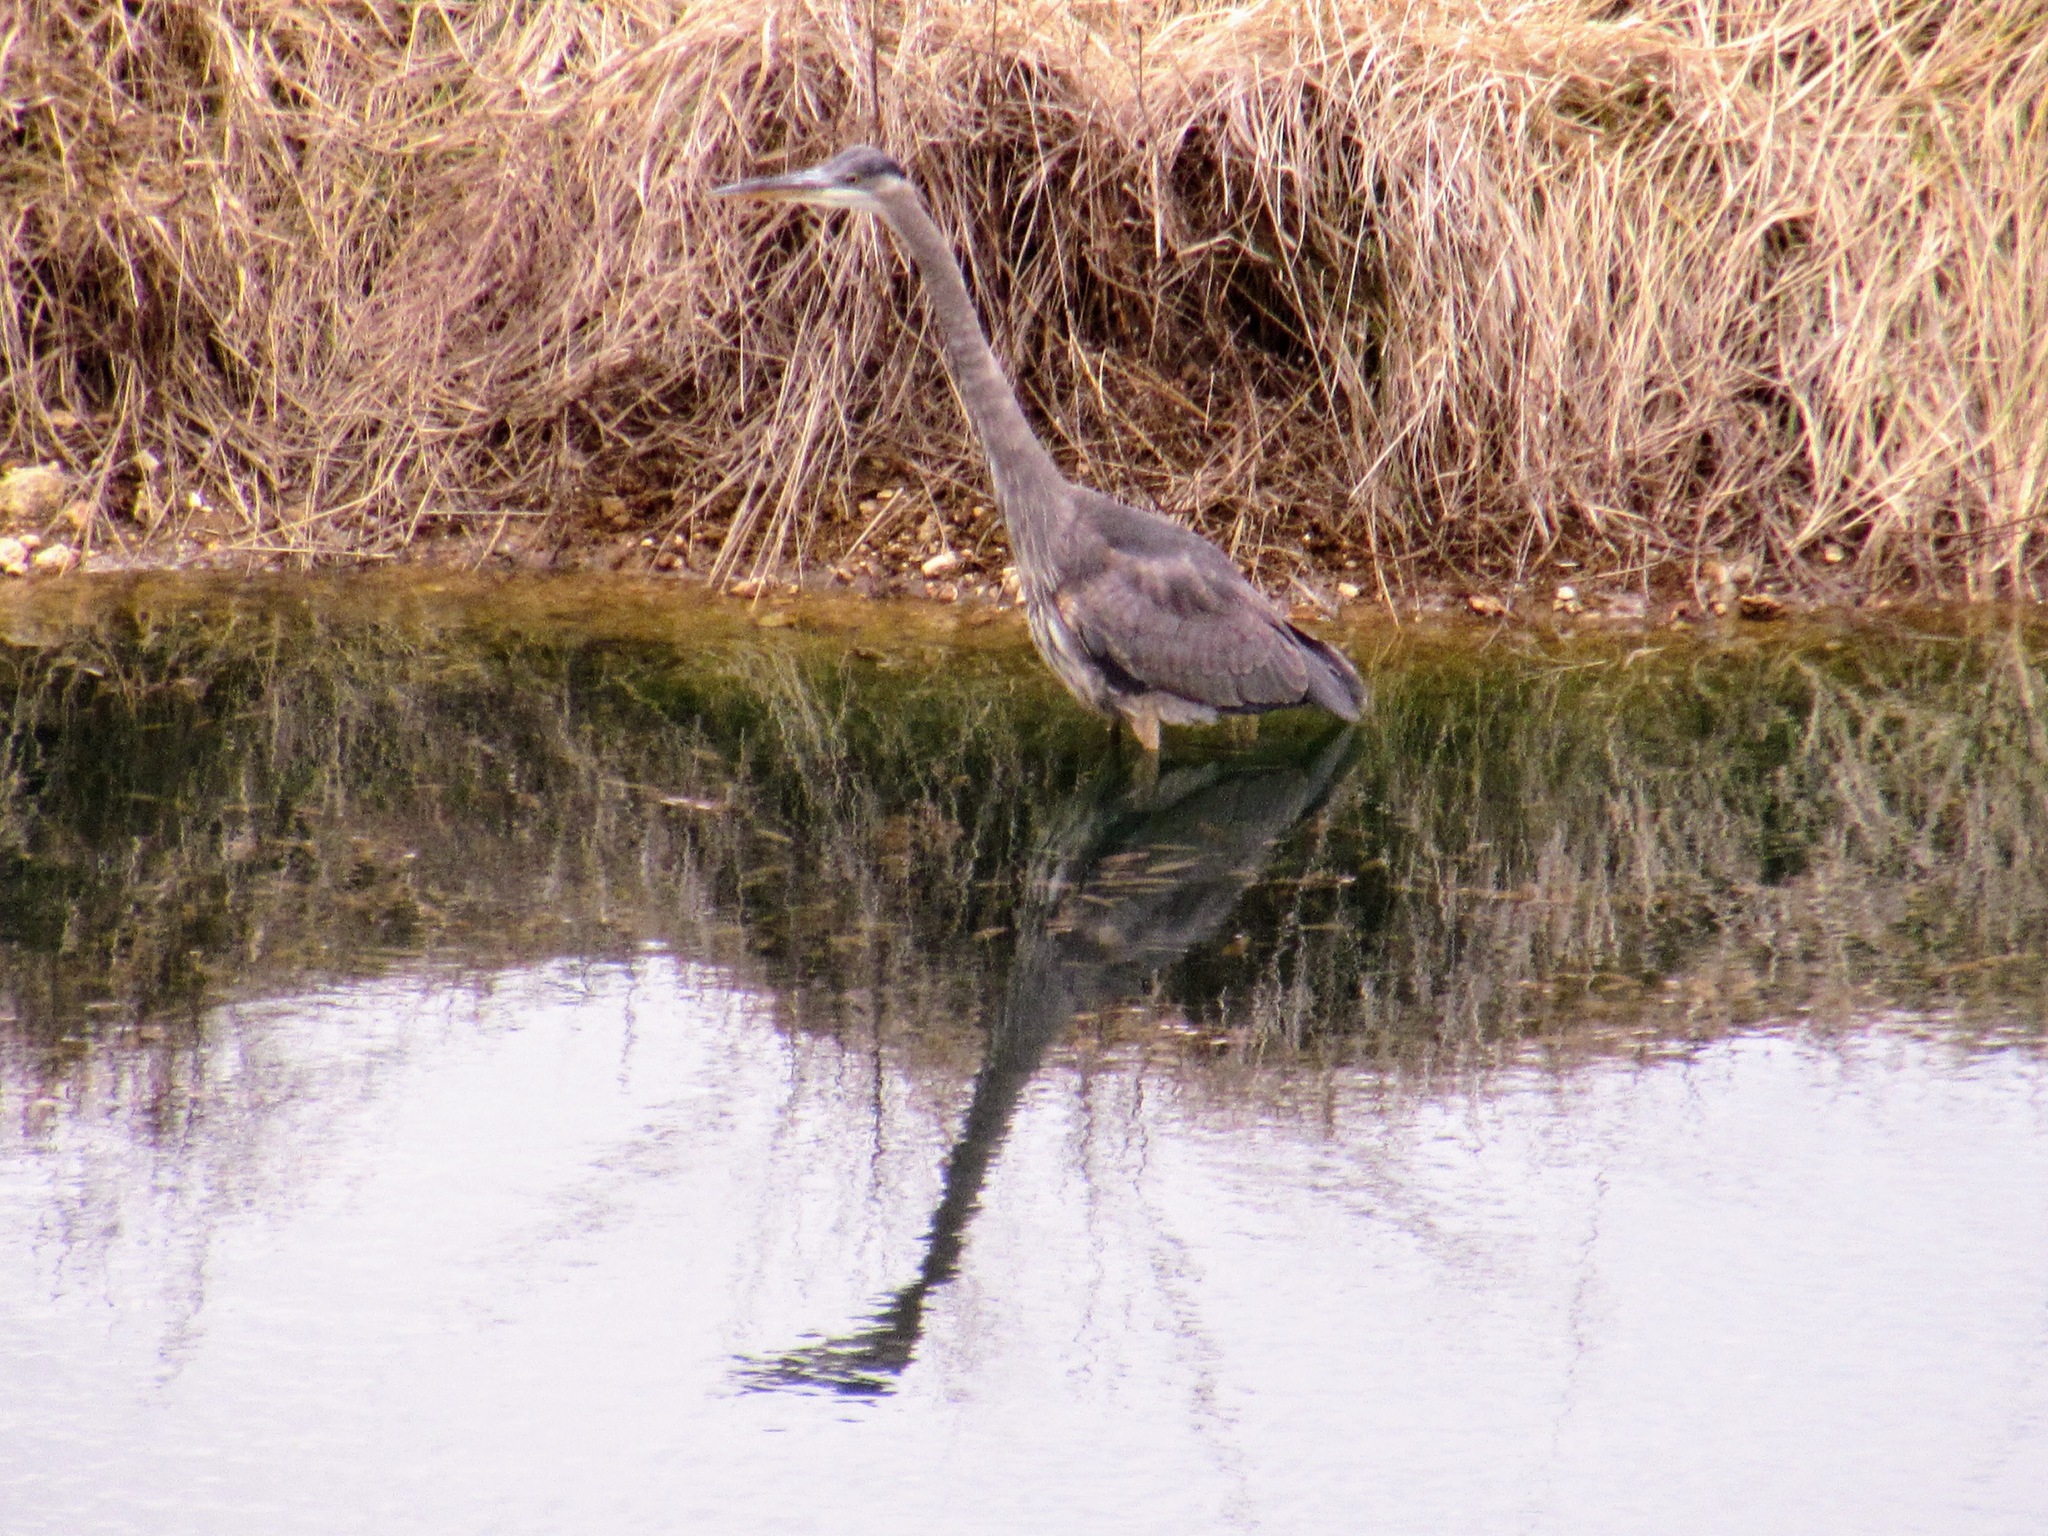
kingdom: Animalia
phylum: Chordata
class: Aves
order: Pelecaniformes
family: Ardeidae
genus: Ardea
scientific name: Ardea herodias
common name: Great blue heron
